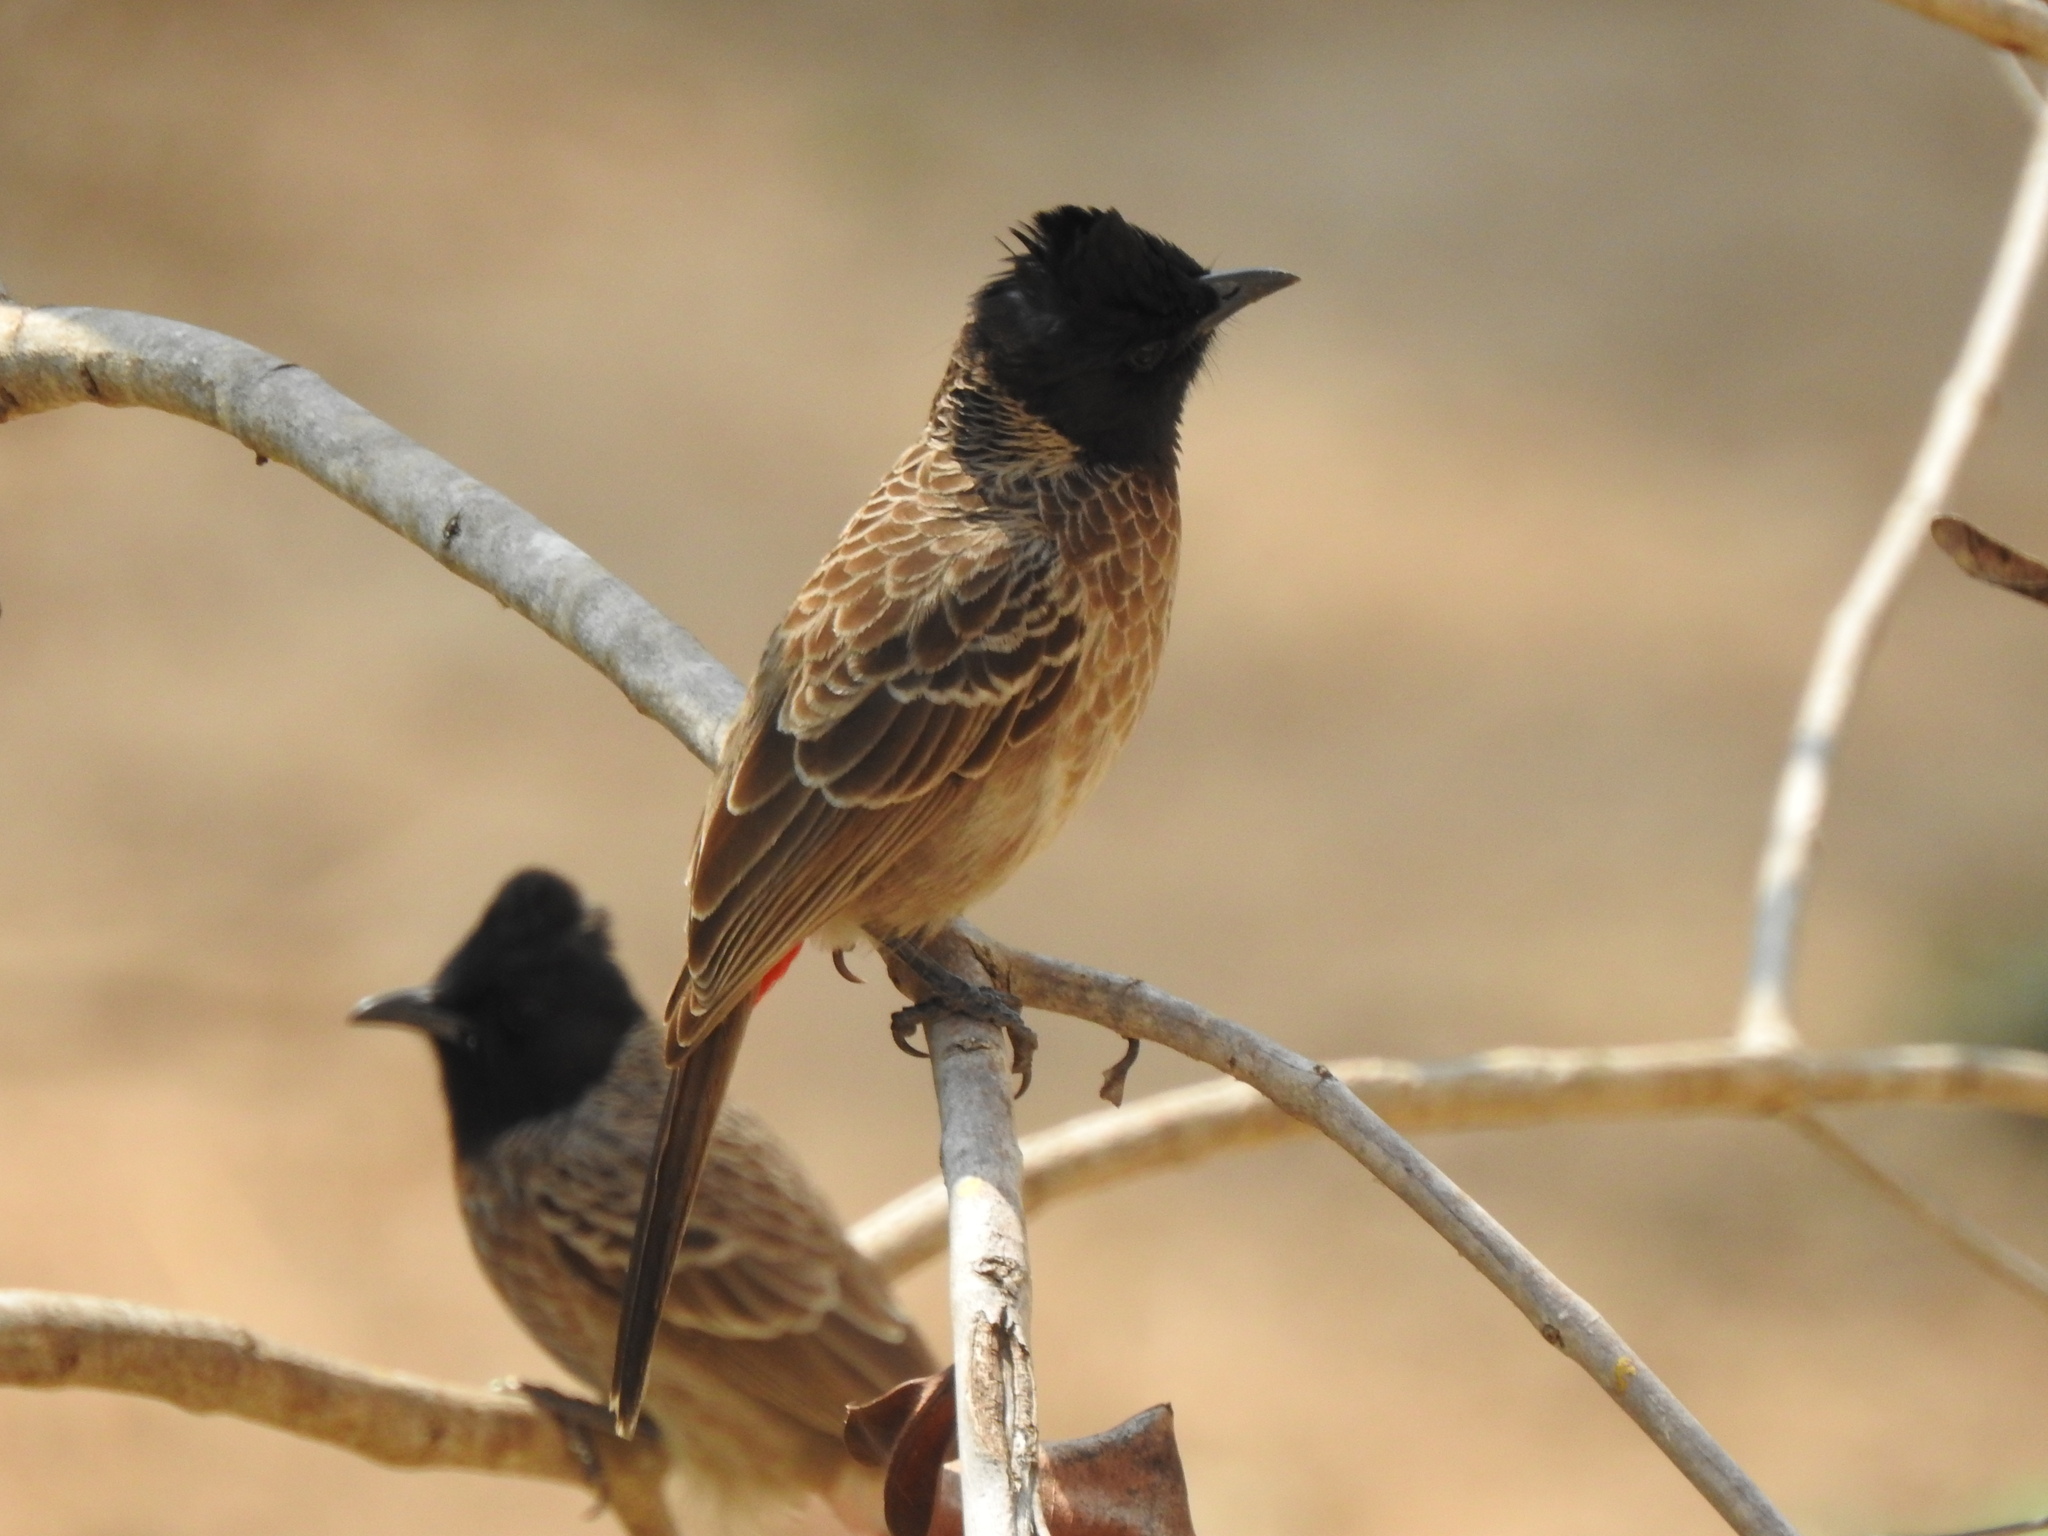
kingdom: Animalia
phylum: Chordata
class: Aves
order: Passeriformes
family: Pycnonotidae
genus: Pycnonotus
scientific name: Pycnonotus cafer
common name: Red-vented bulbul
